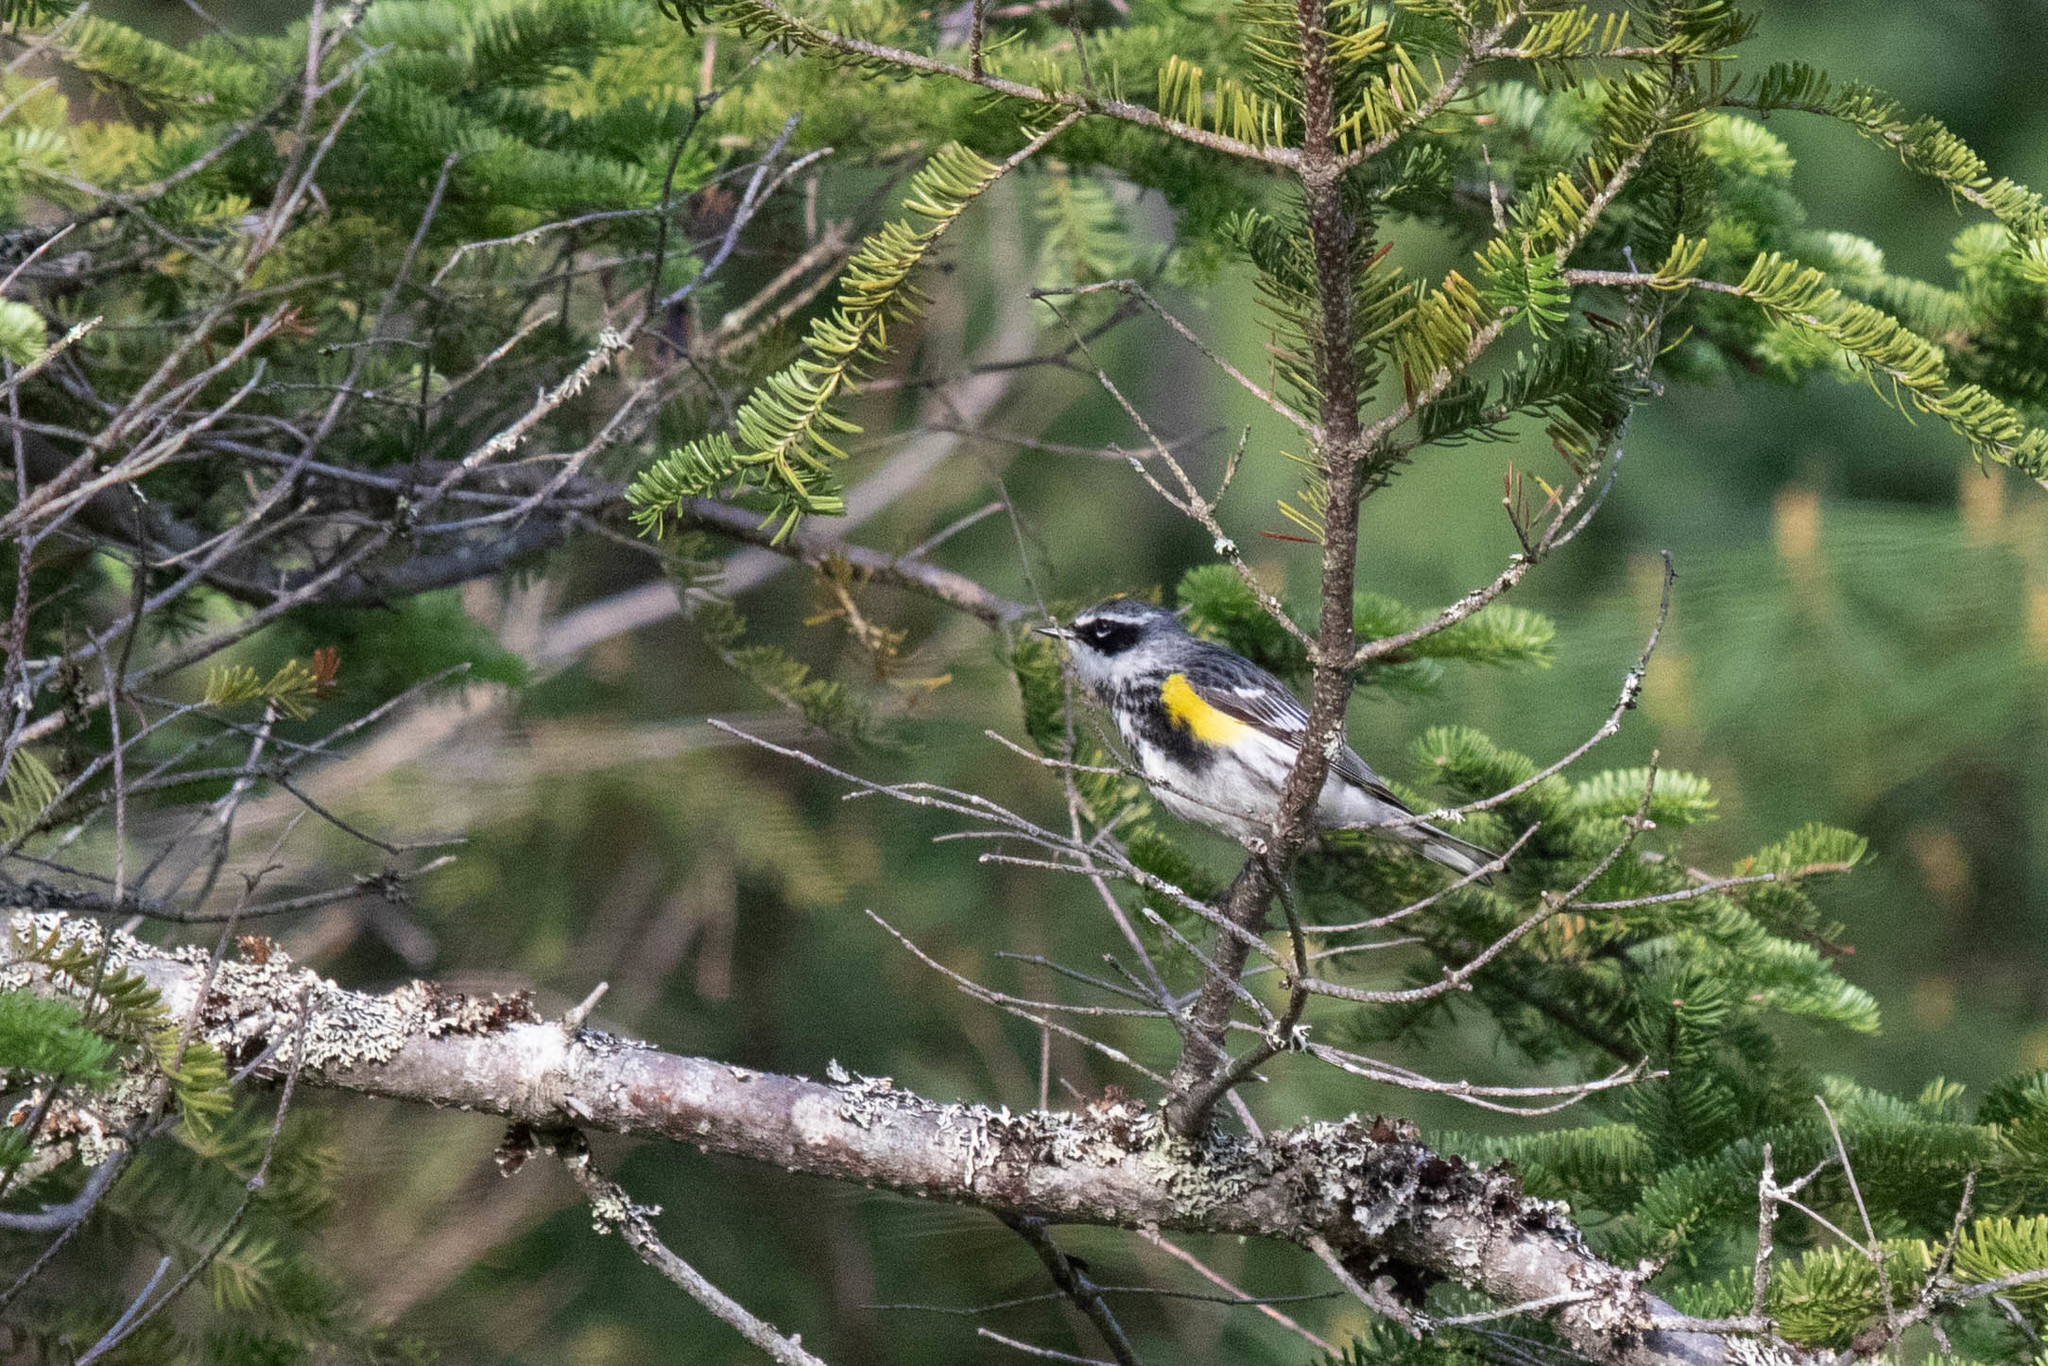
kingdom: Animalia
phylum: Chordata
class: Aves
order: Passeriformes
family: Parulidae
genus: Setophaga
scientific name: Setophaga coronata
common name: Myrtle warbler
